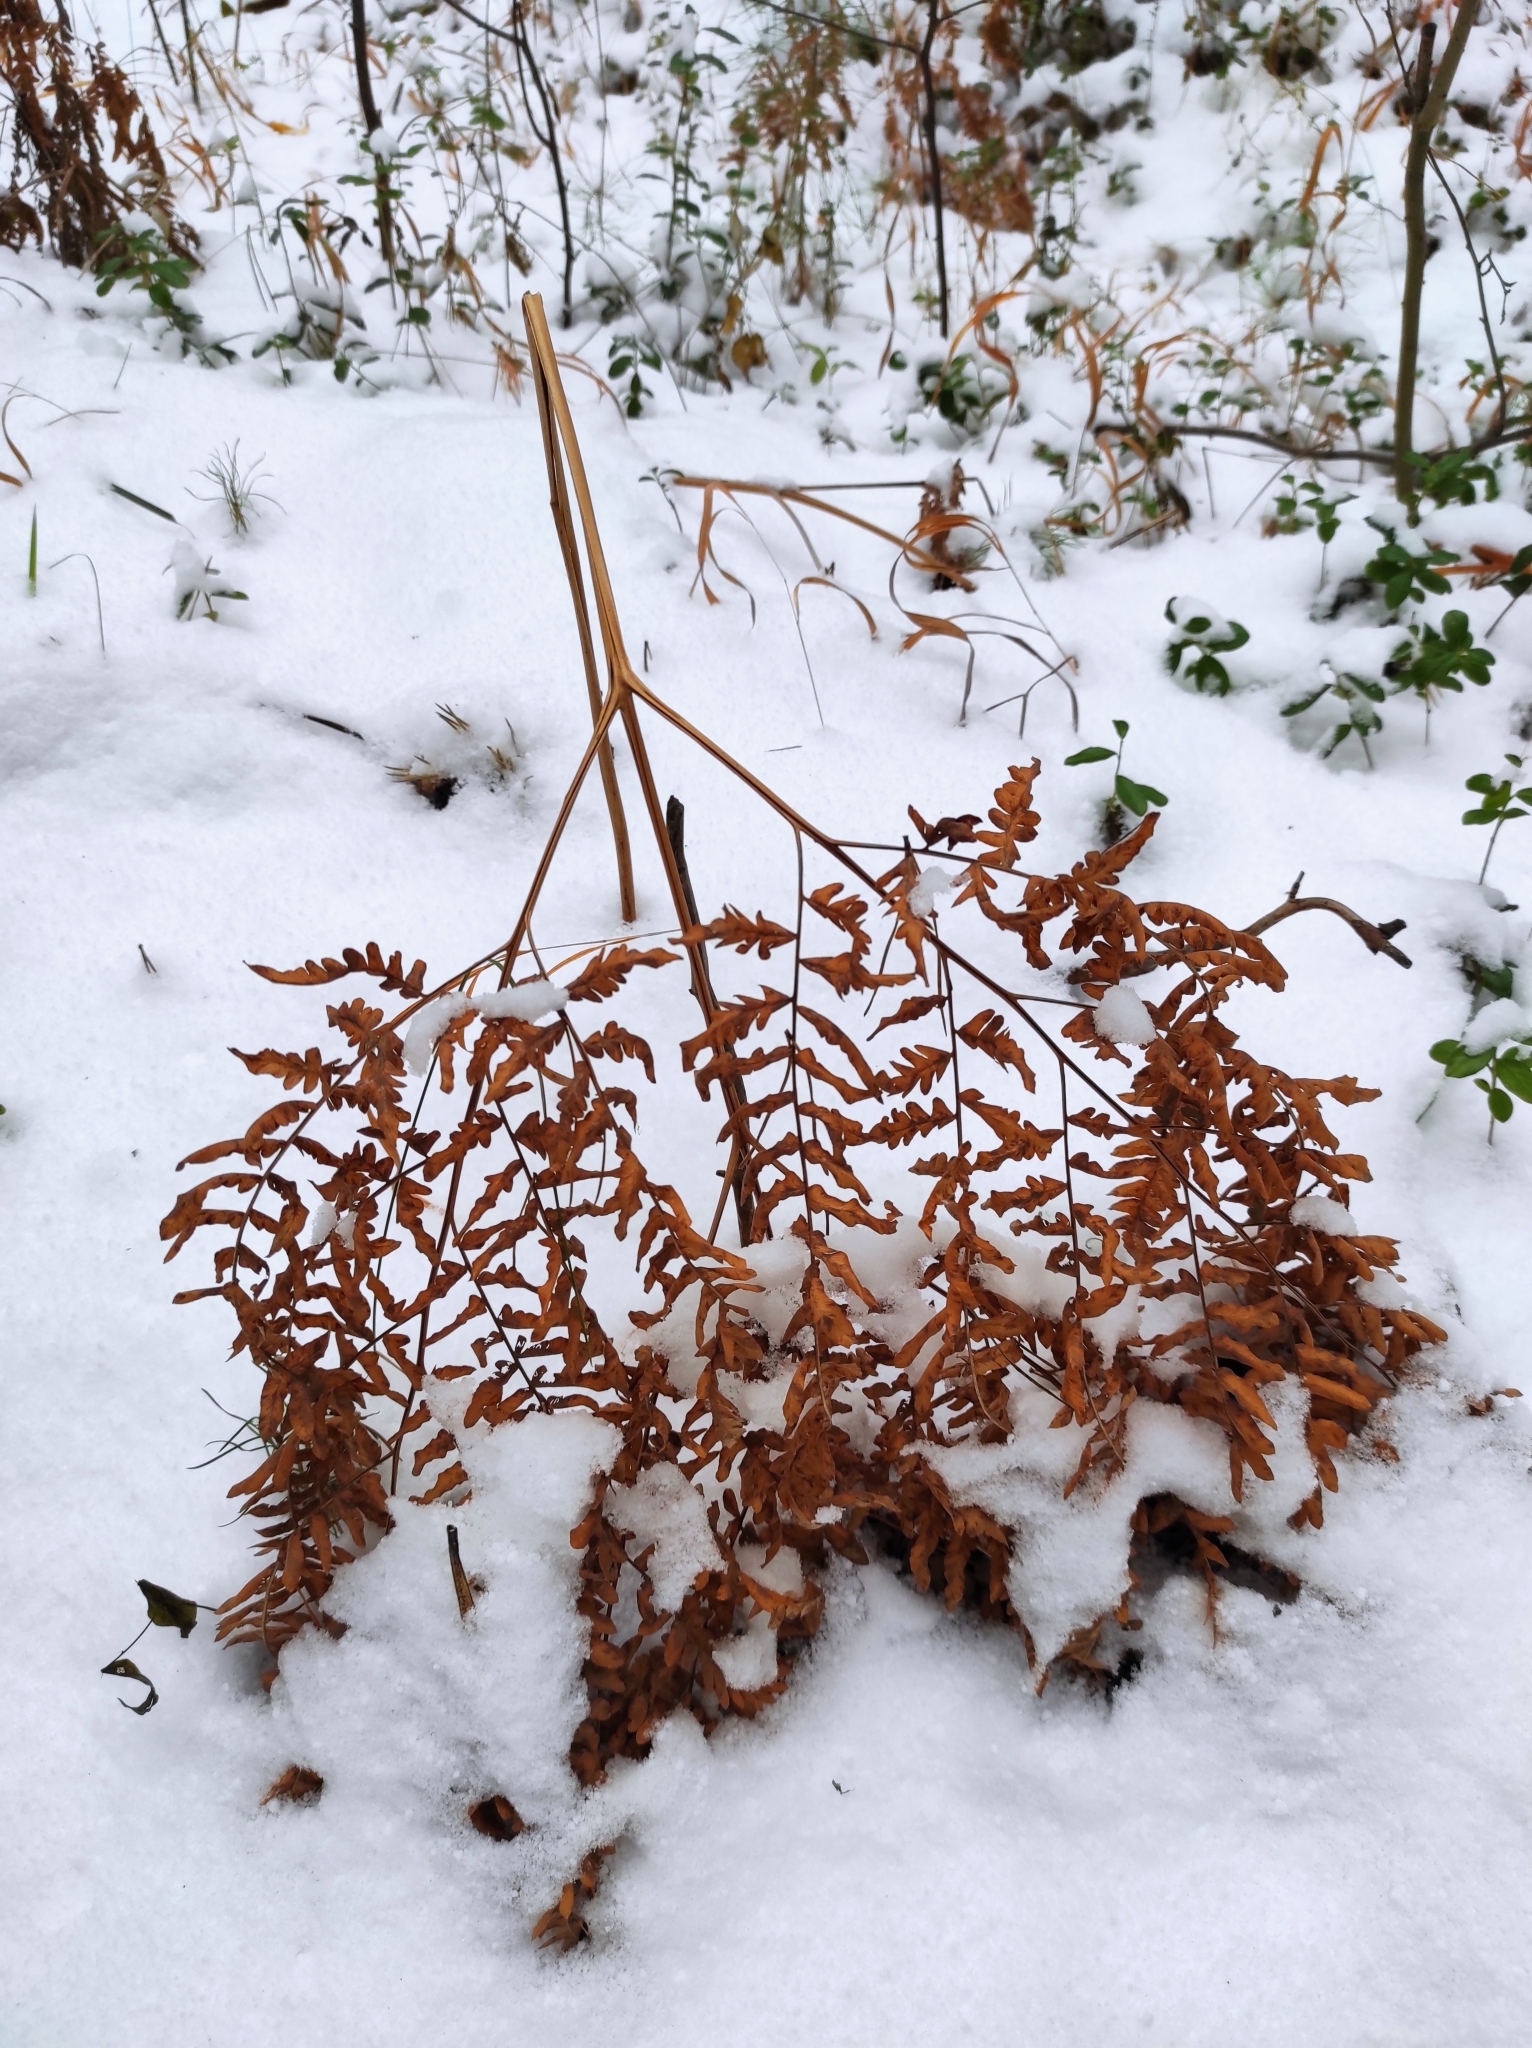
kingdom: Plantae
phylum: Tracheophyta
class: Polypodiopsida
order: Polypodiales
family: Dennstaedtiaceae
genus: Pteridium
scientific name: Pteridium aquilinum
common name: Bracken
